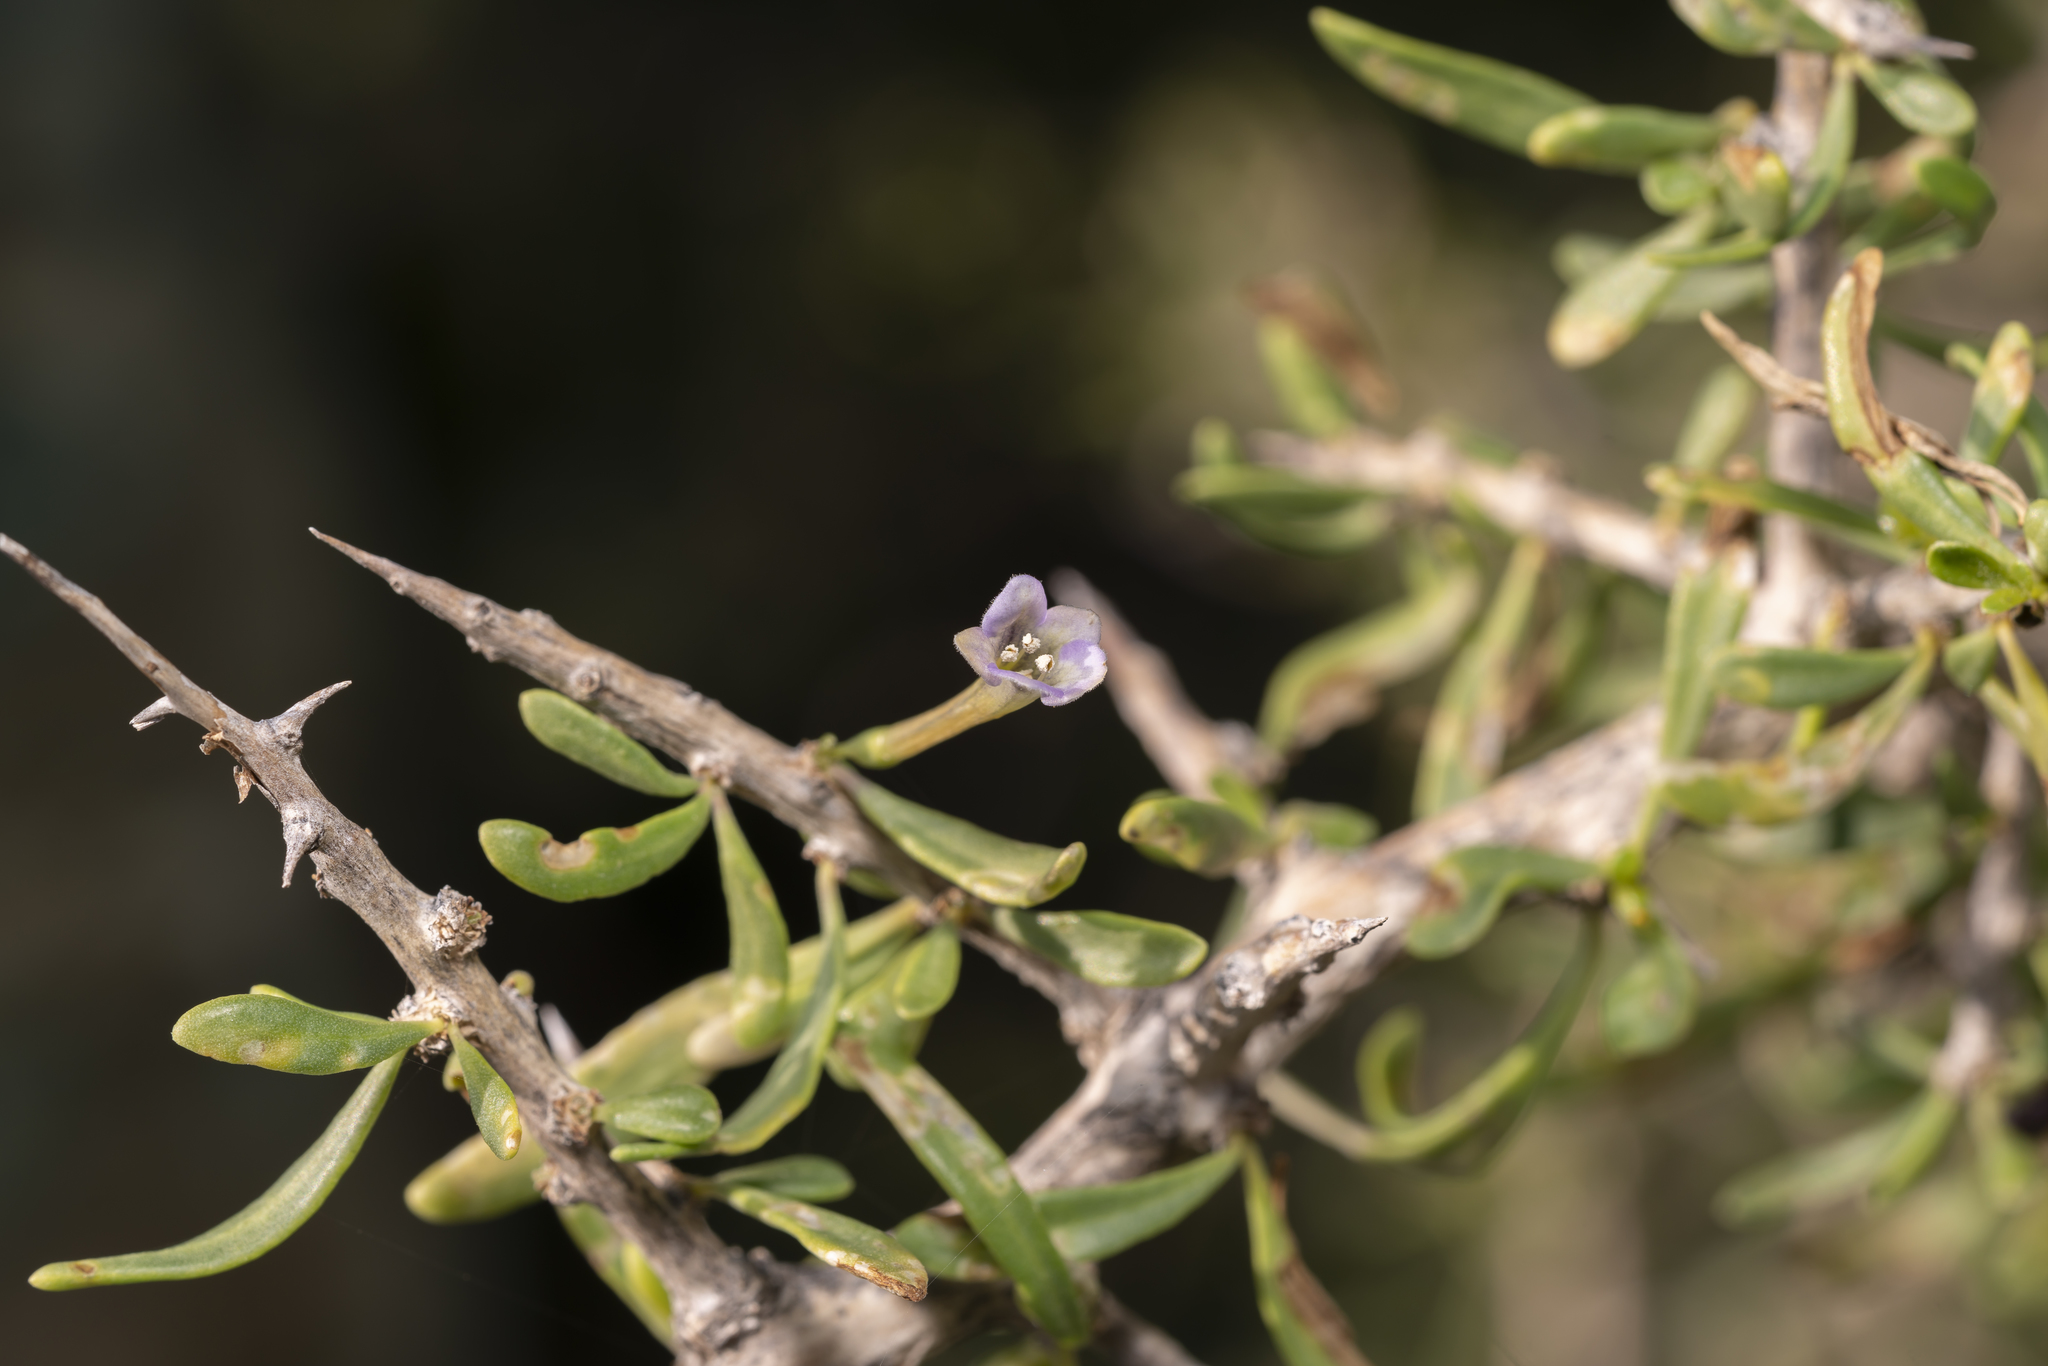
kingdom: Plantae
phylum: Tracheophyta
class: Magnoliopsida
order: Solanales
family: Solanaceae
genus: Lycium
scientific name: Lycium schweinfurthii
